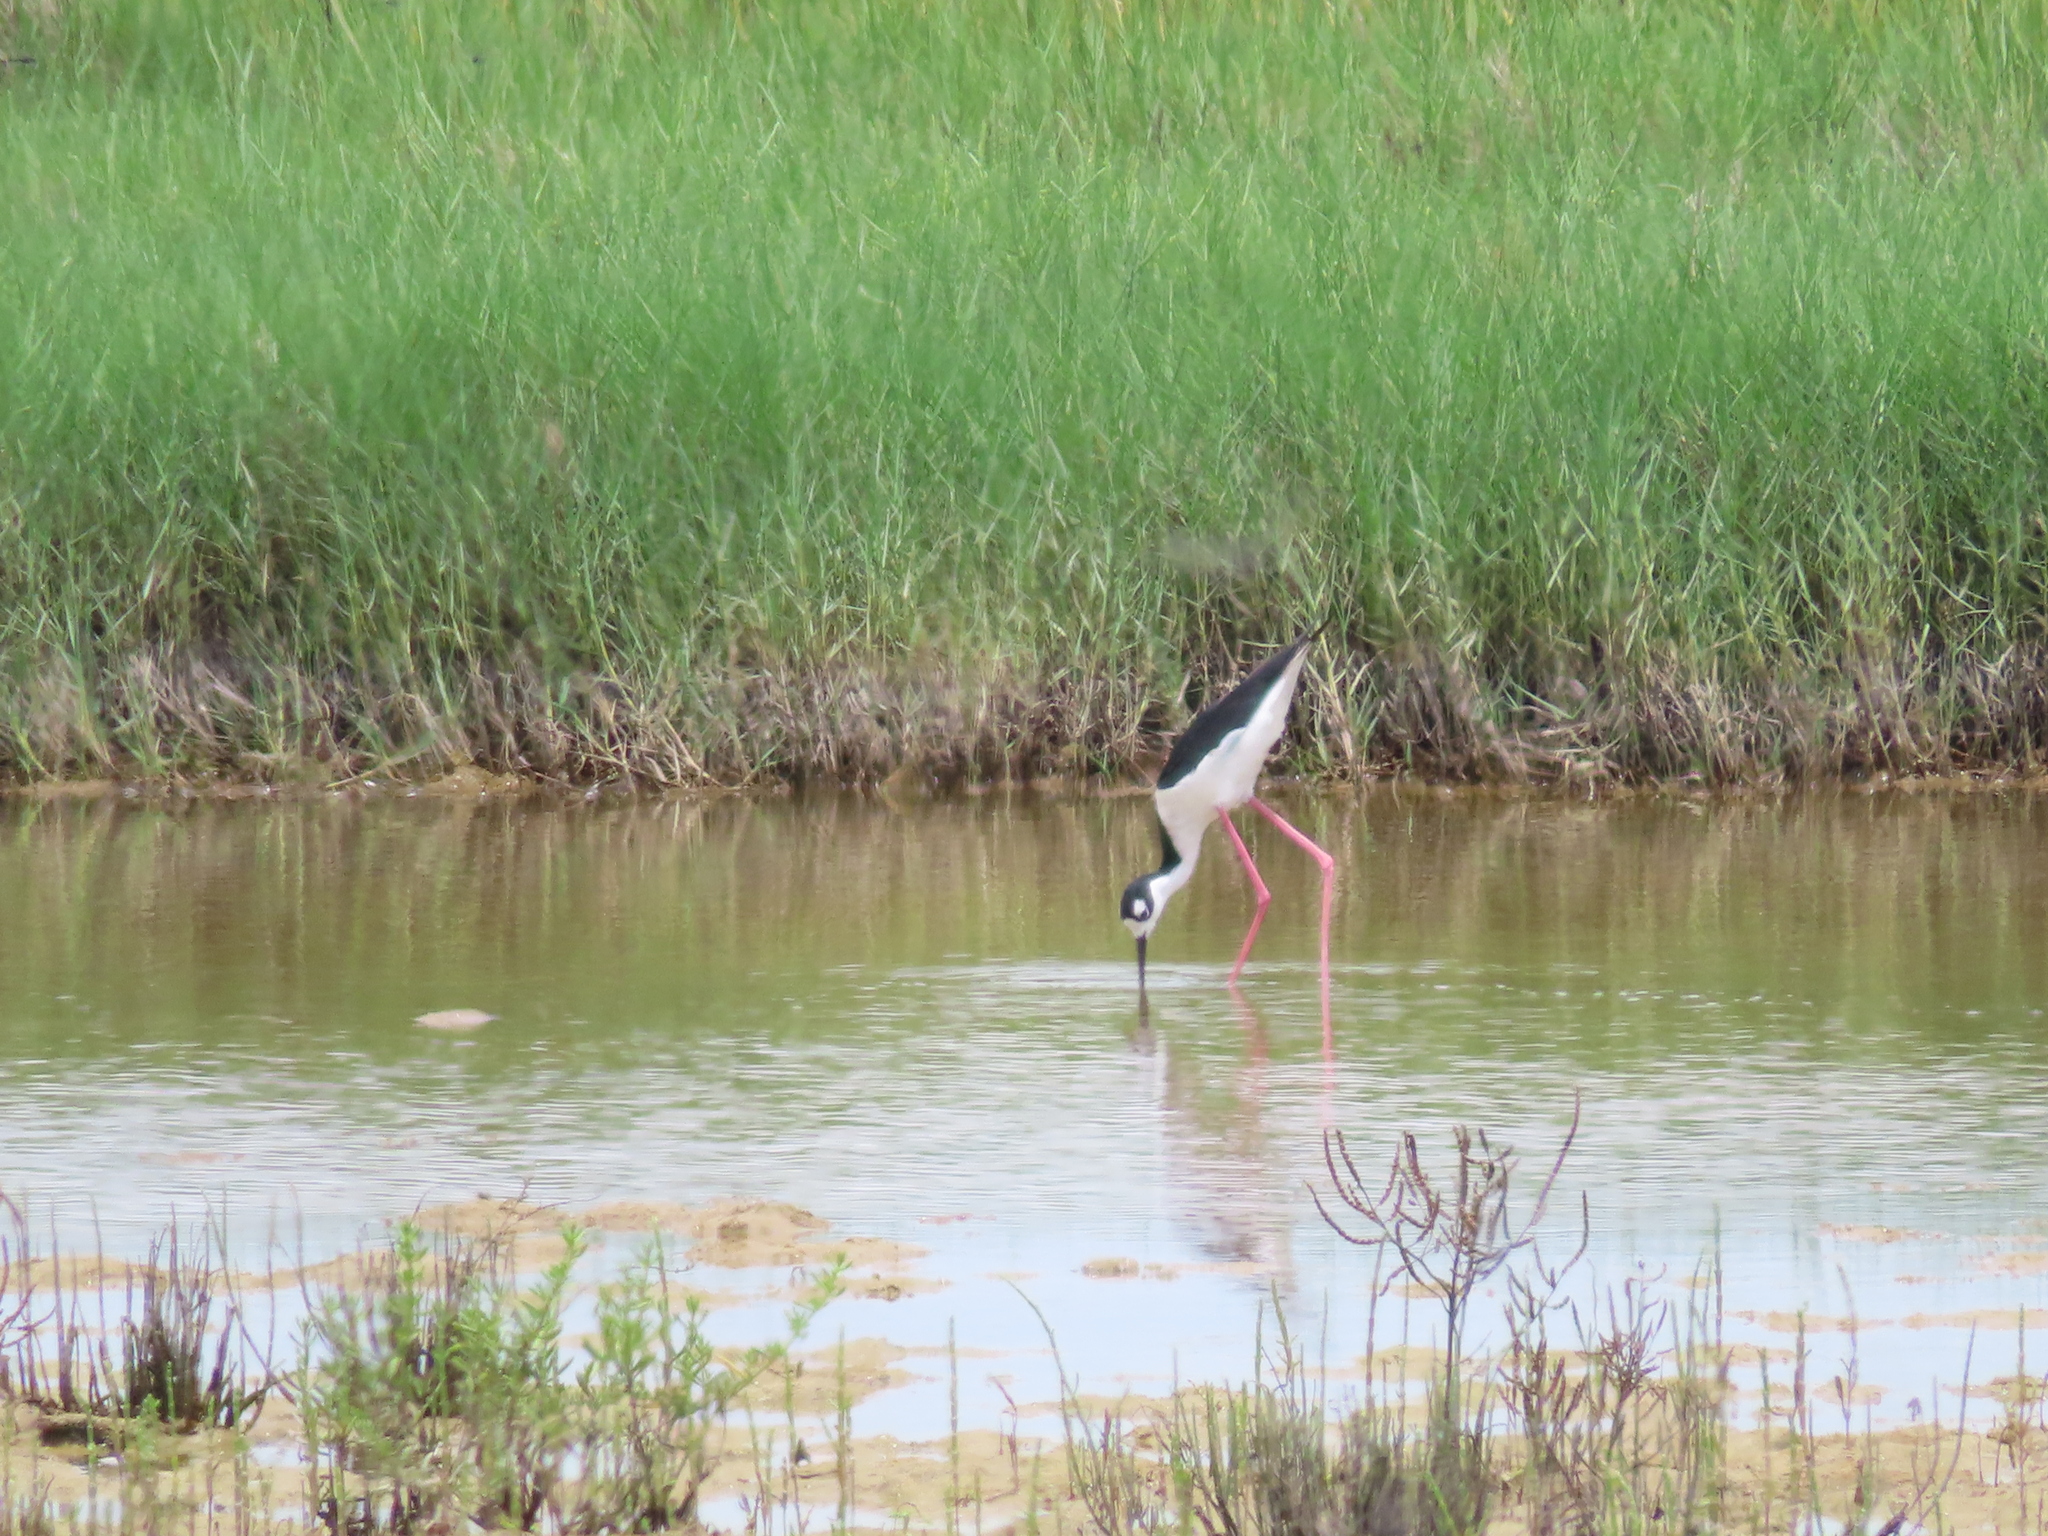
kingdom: Animalia
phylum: Chordata
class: Aves
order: Charadriiformes
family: Recurvirostridae
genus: Himantopus
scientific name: Himantopus mexicanus
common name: Black-necked stilt
